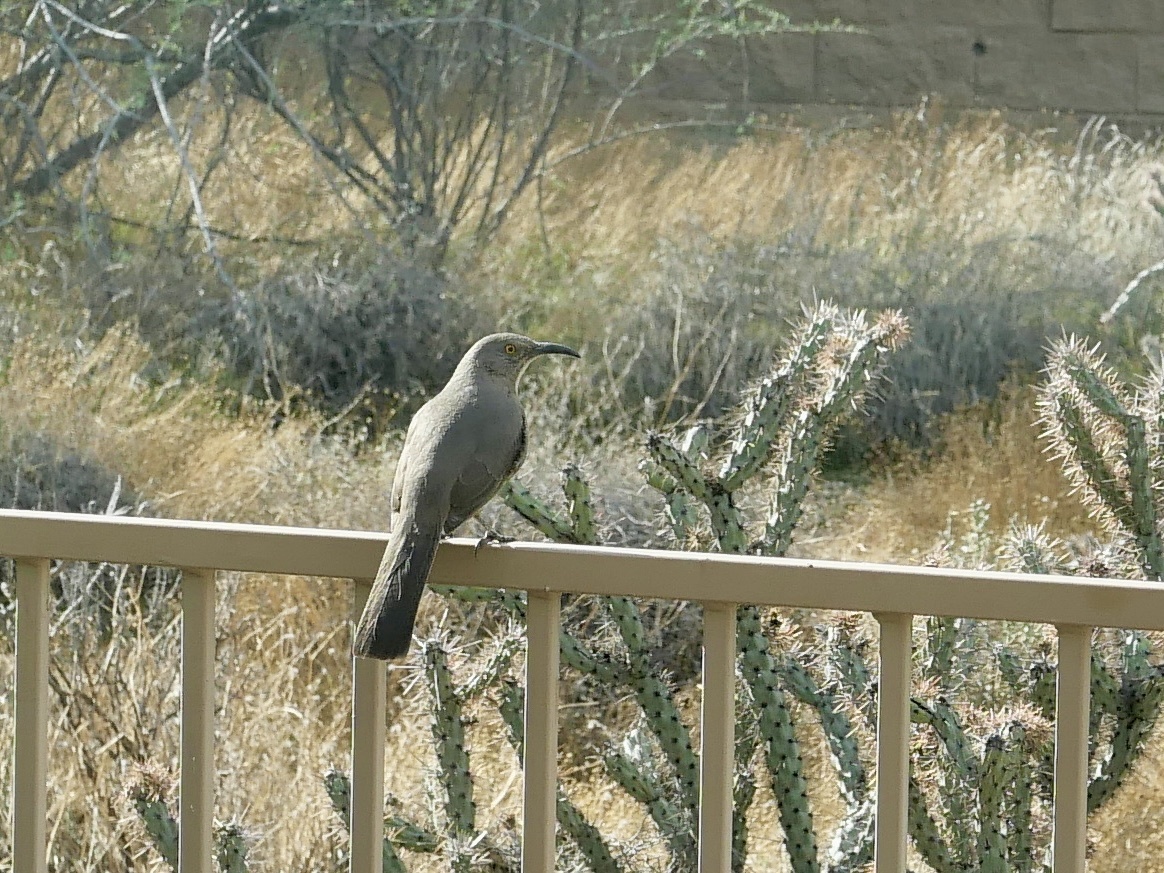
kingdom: Animalia
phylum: Chordata
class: Aves
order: Passeriformes
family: Mimidae
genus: Toxostoma
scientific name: Toxostoma curvirostre
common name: Curve-billed thrasher
